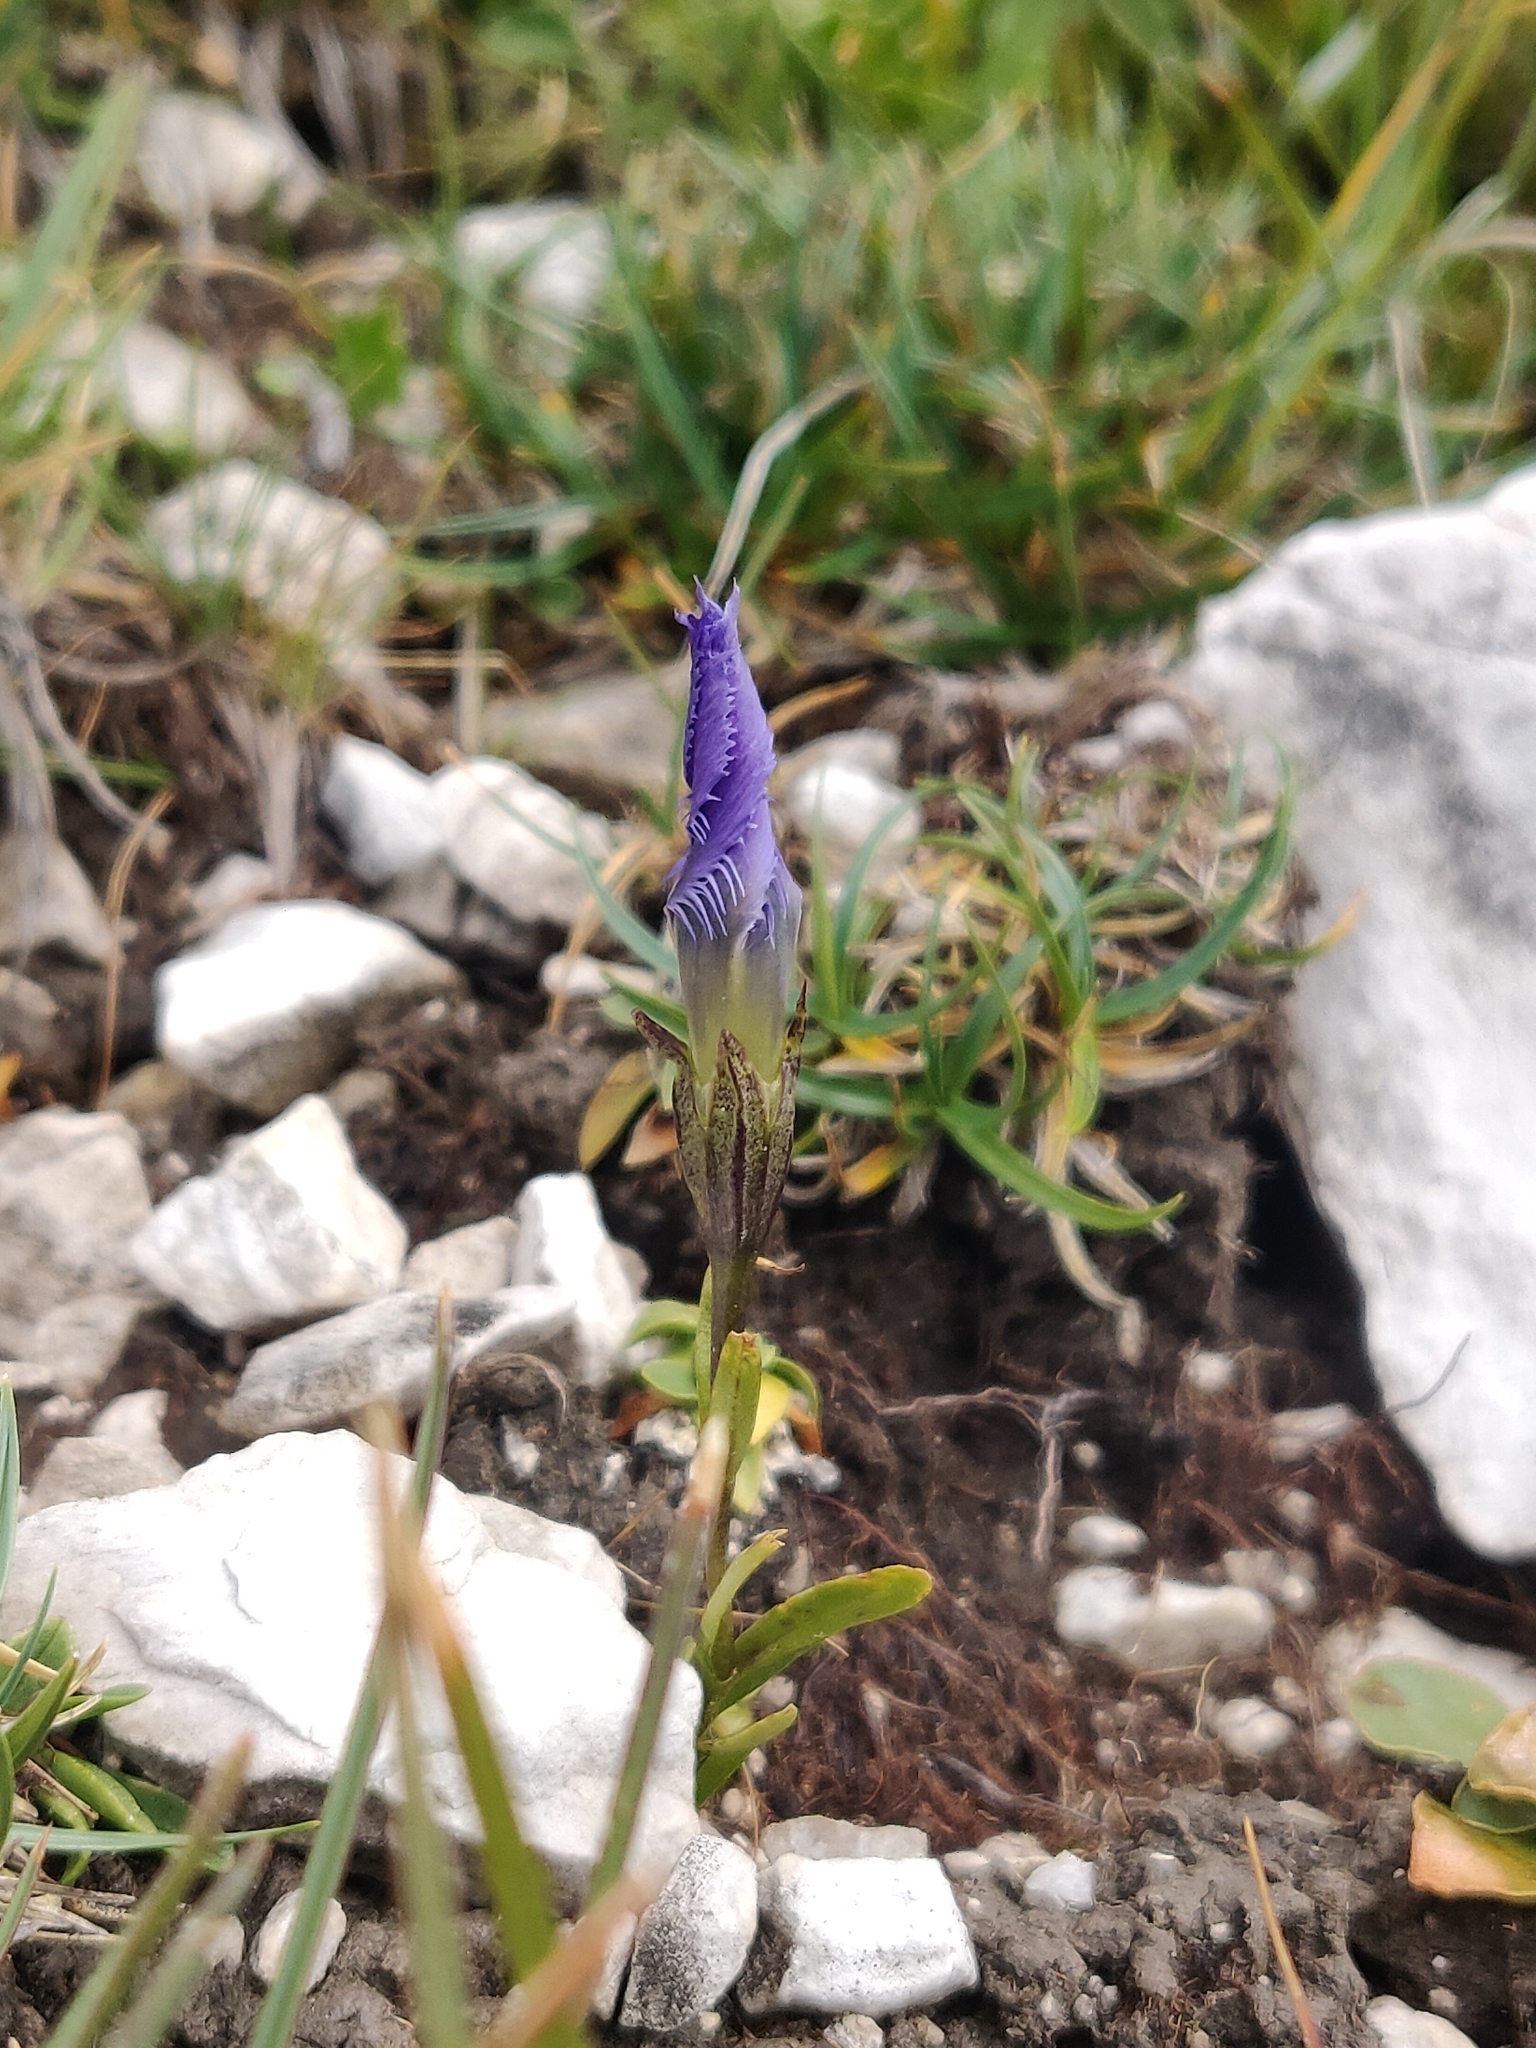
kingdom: Plantae
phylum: Tracheophyta
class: Magnoliopsida
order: Gentianales
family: Gentianaceae
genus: Gentianopsis
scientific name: Gentianopsis ciliata
